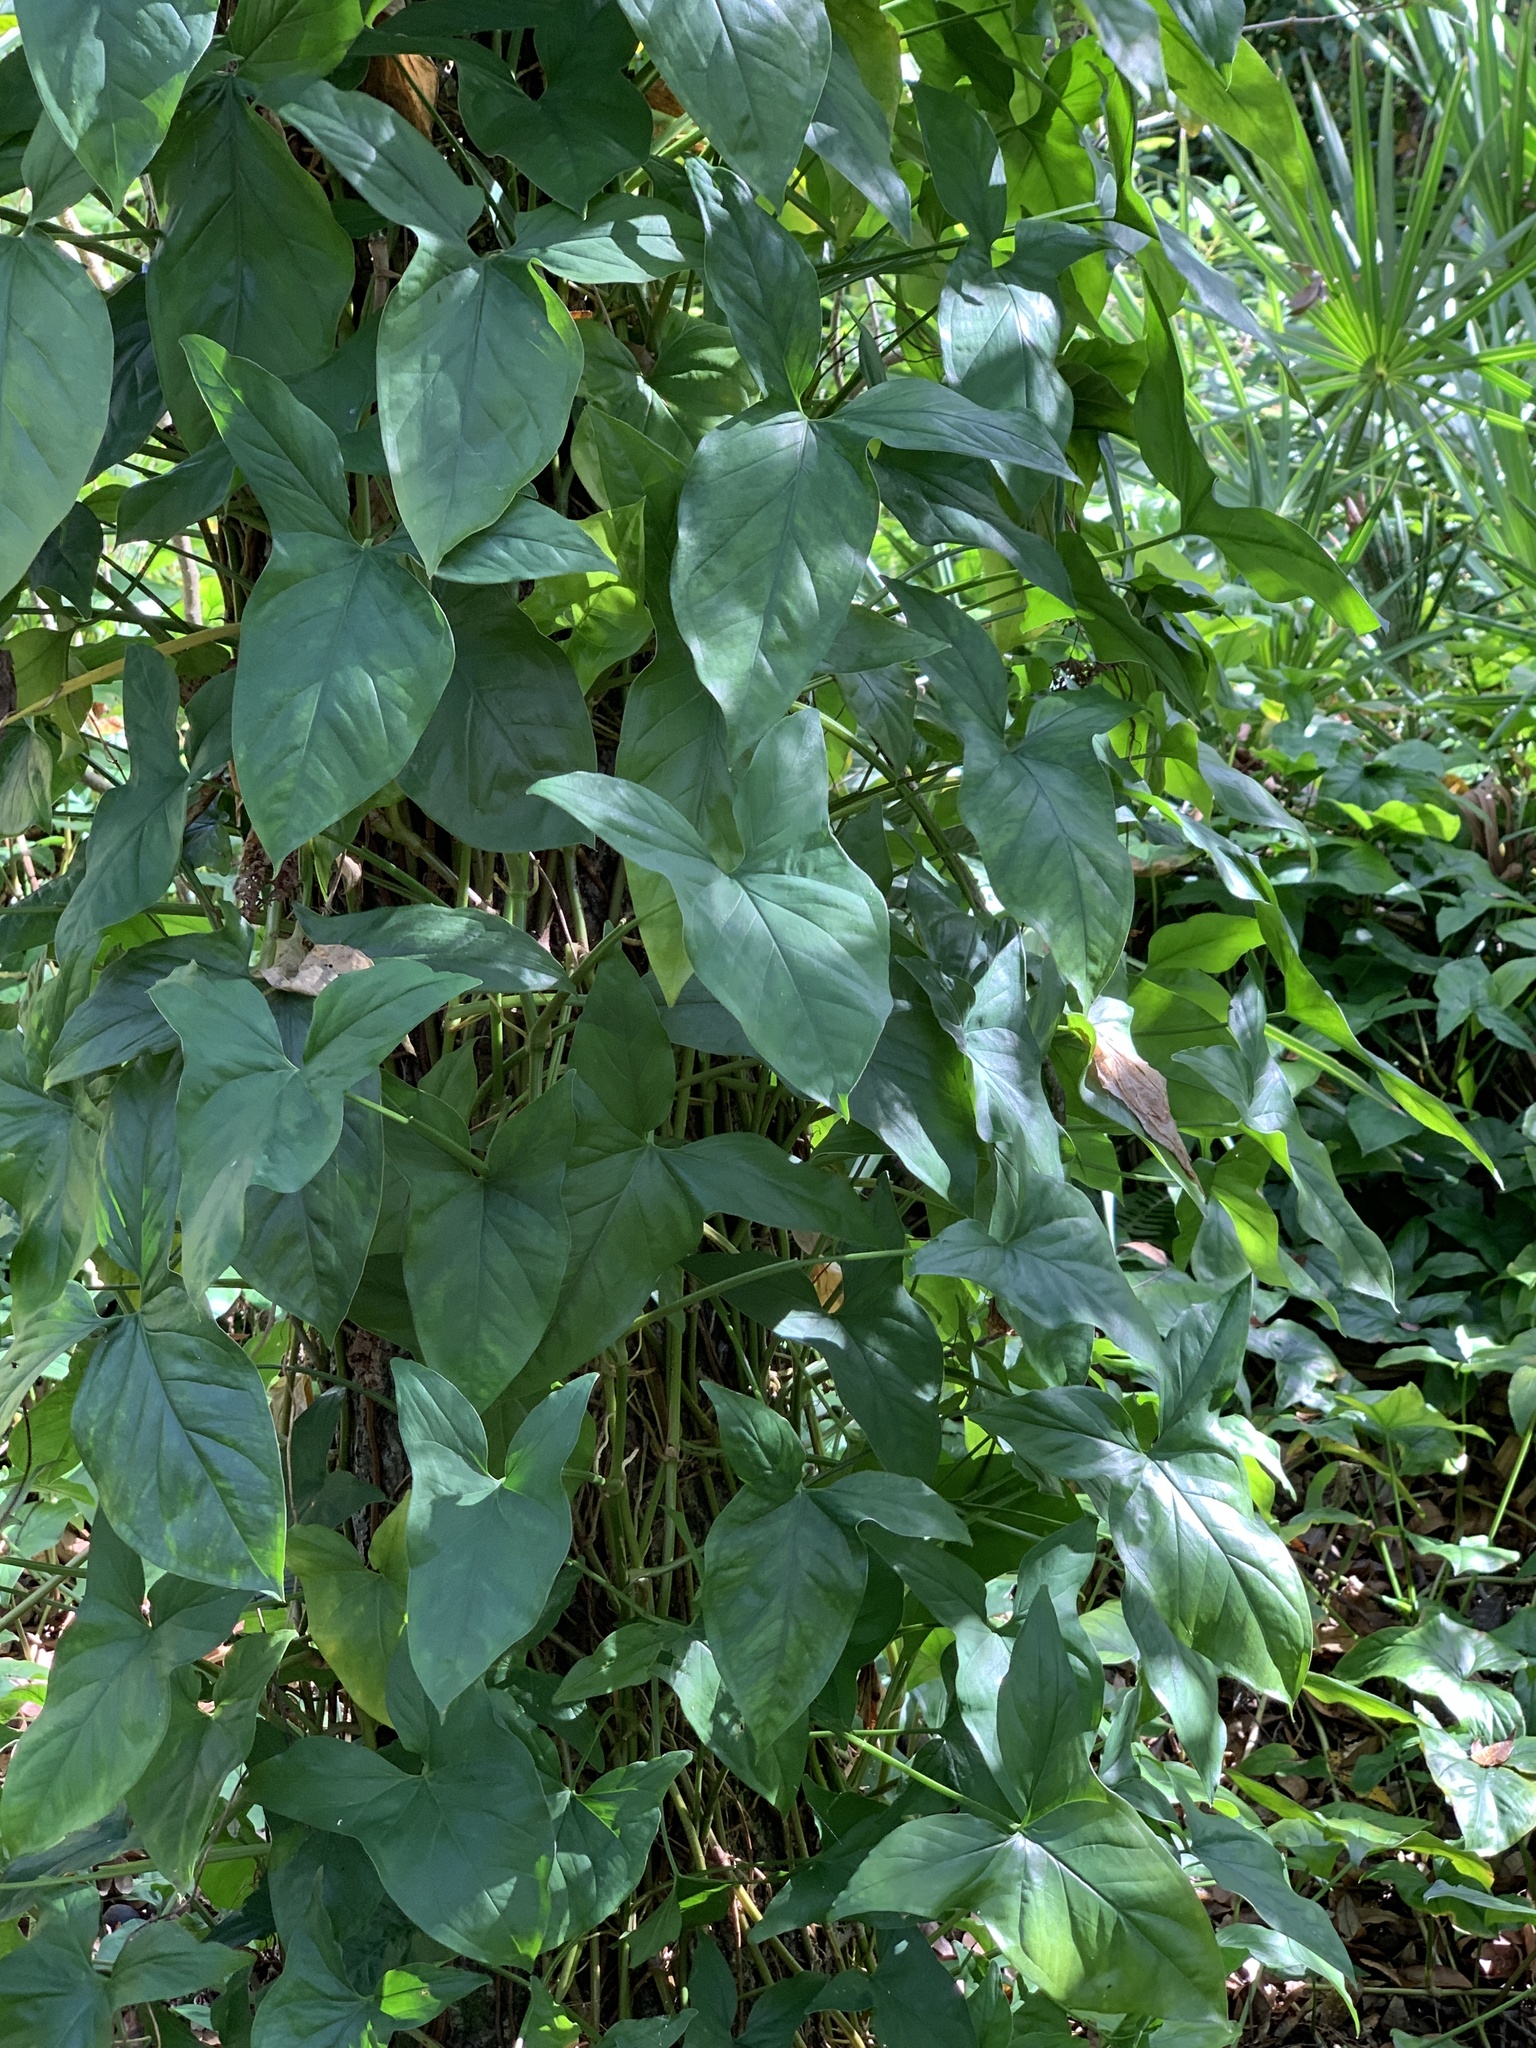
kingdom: Plantae
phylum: Tracheophyta
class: Liliopsida
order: Alismatales
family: Araceae
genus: Syngonium
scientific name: Syngonium podophyllum
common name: American evergreen
